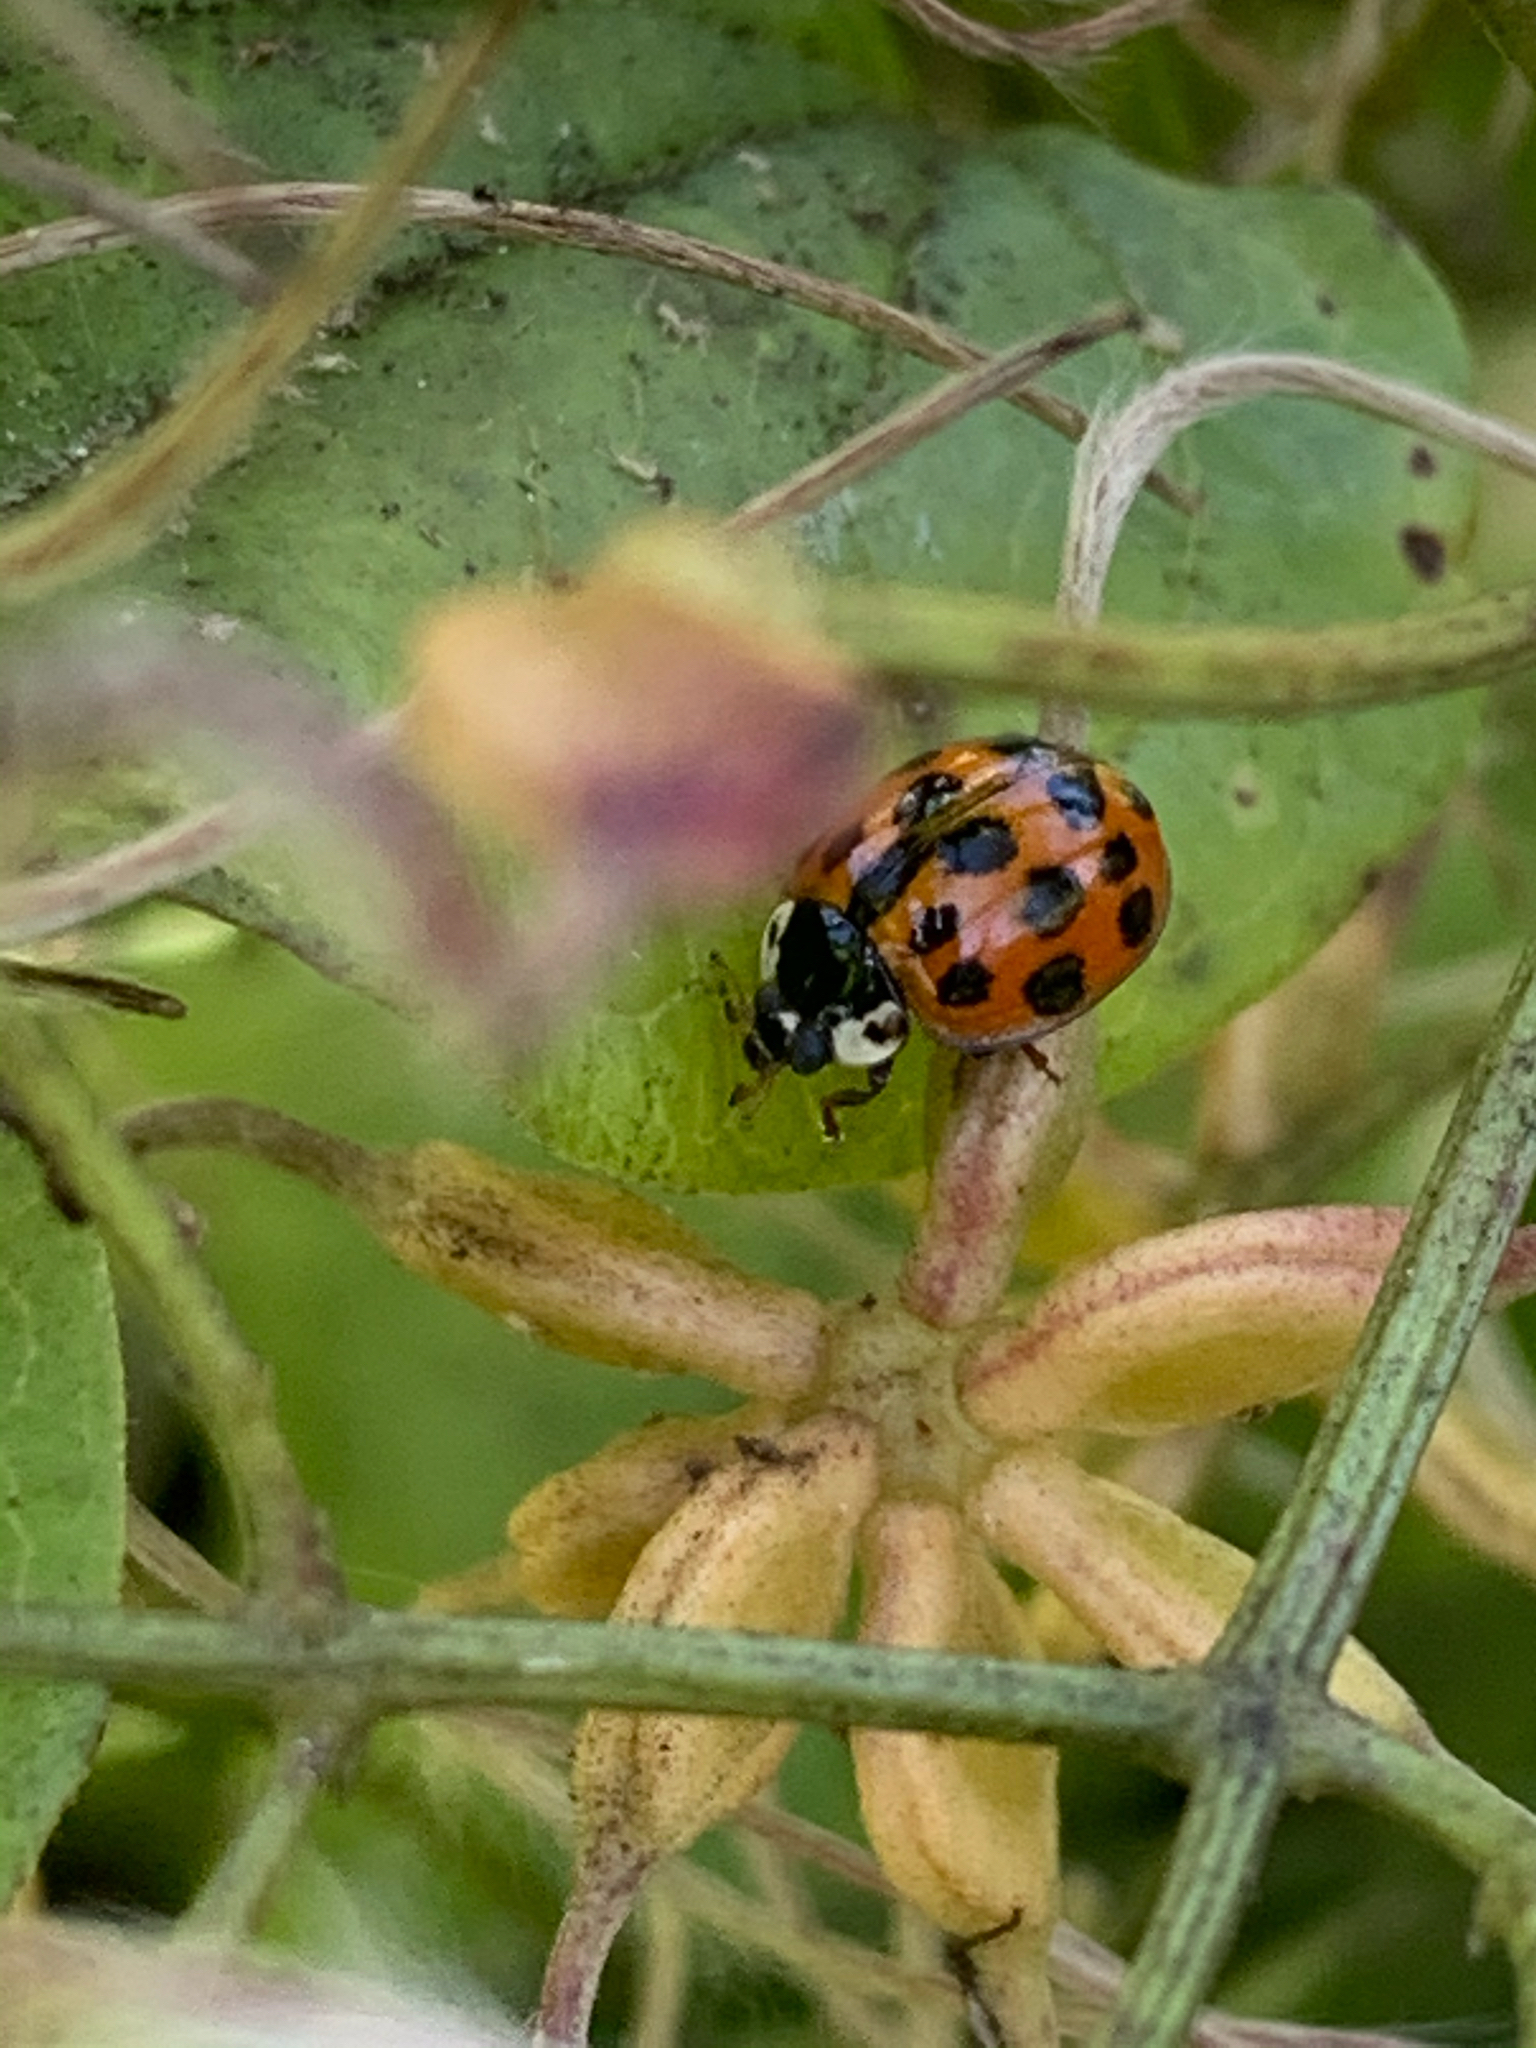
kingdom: Animalia
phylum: Arthropoda
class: Insecta
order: Coleoptera
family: Coccinellidae
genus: Harmonia
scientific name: Harmonia axyridis
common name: Harlequin ladybird
